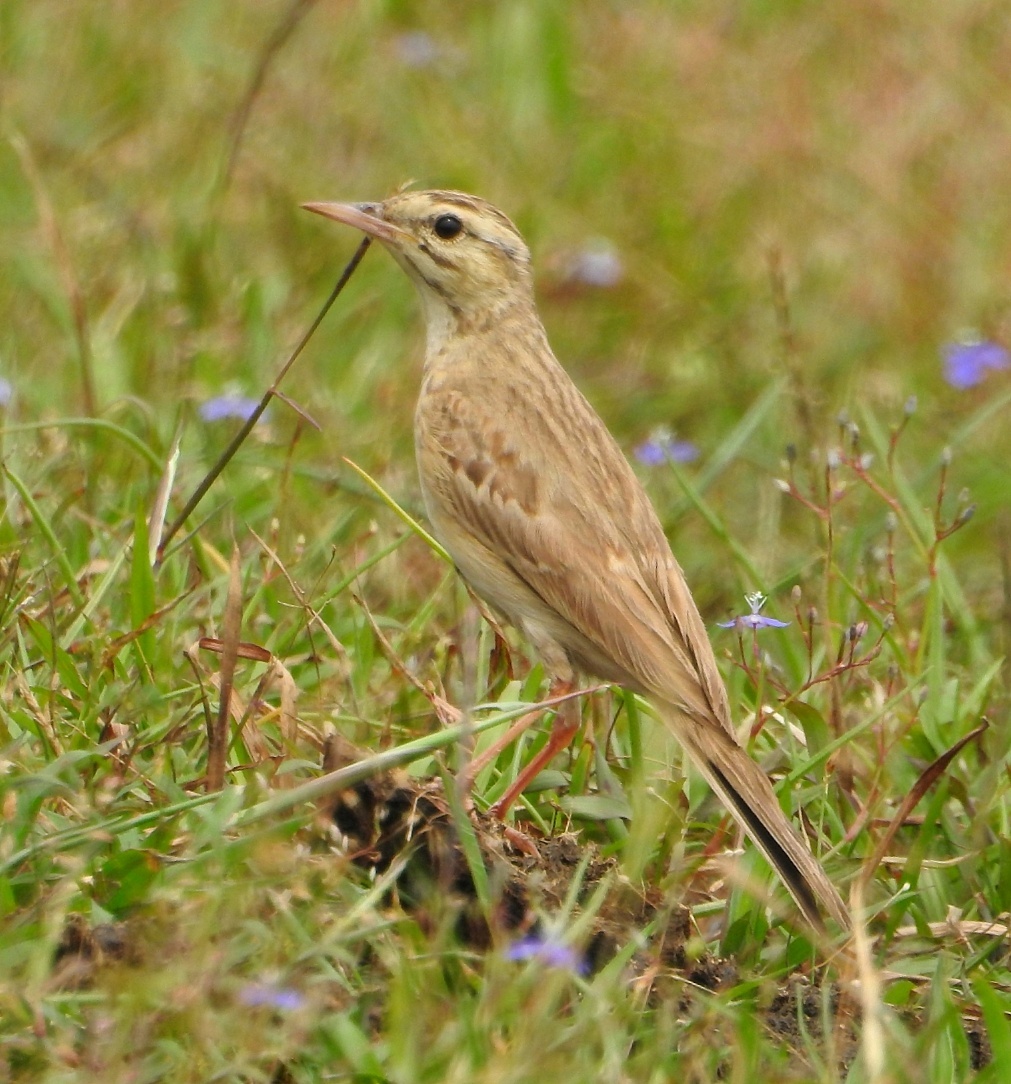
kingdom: Animalia
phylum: Chordata
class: Aves
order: Passeriformes
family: Motacillidae
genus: Anthus
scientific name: Anthus campestris
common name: Tawny pipit
